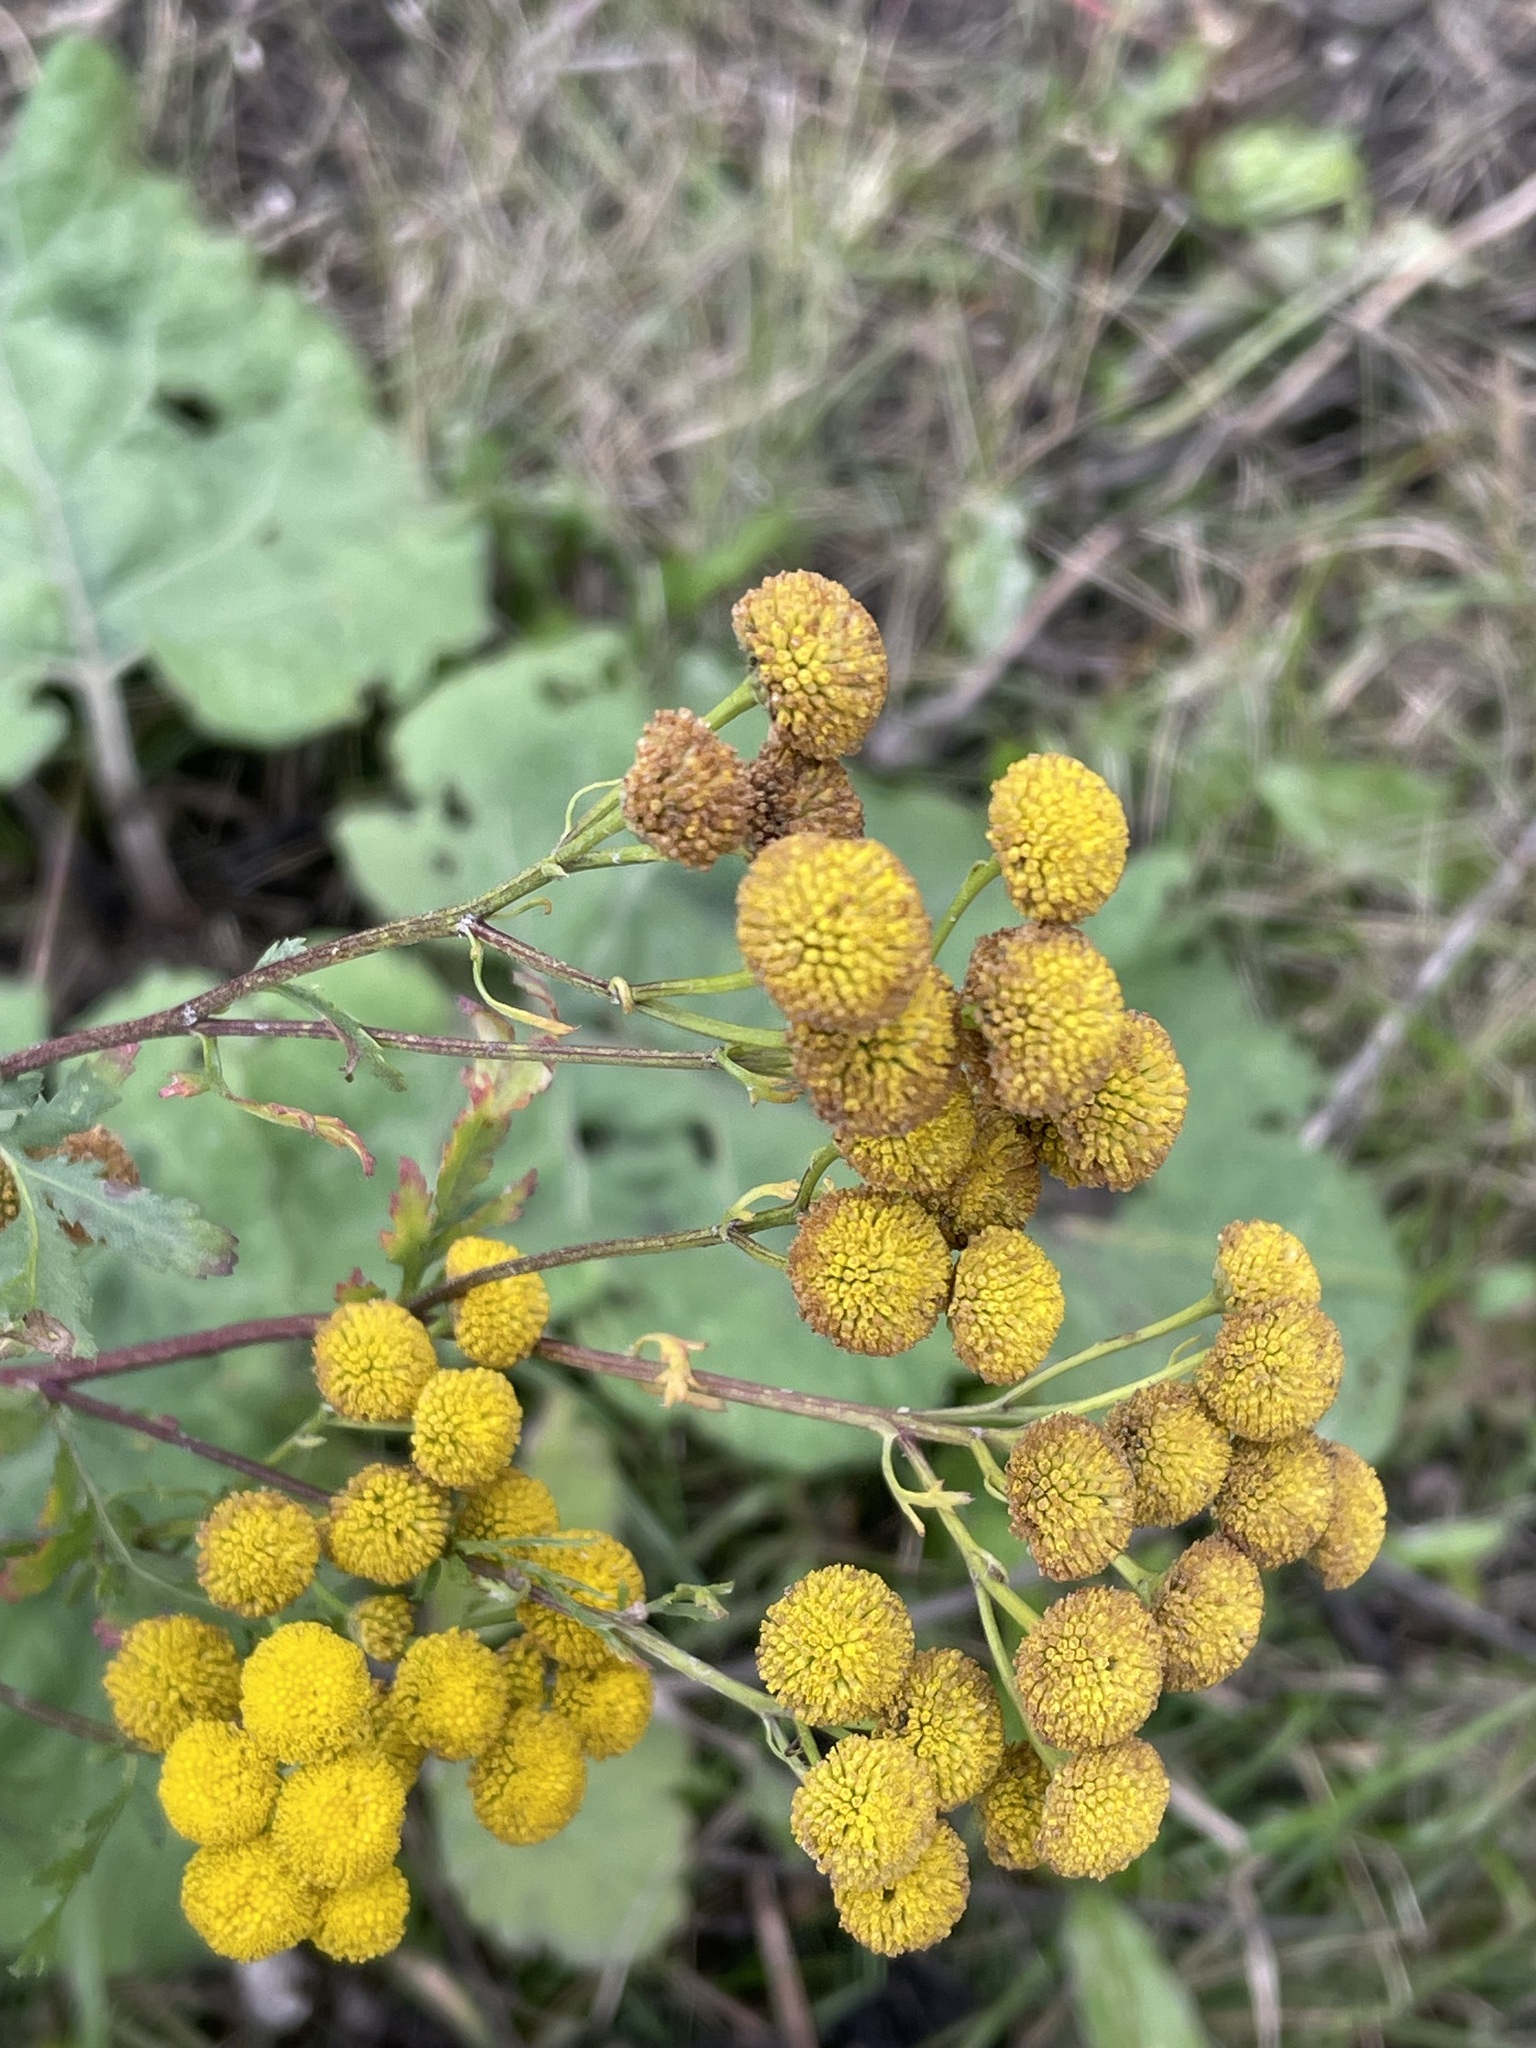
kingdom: Plantae
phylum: Tracheophyta
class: Magnoliopsida
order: Asterales
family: Asteraceae
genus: Tanacetum
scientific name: Tanacetum vulgare
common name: Common tansy
